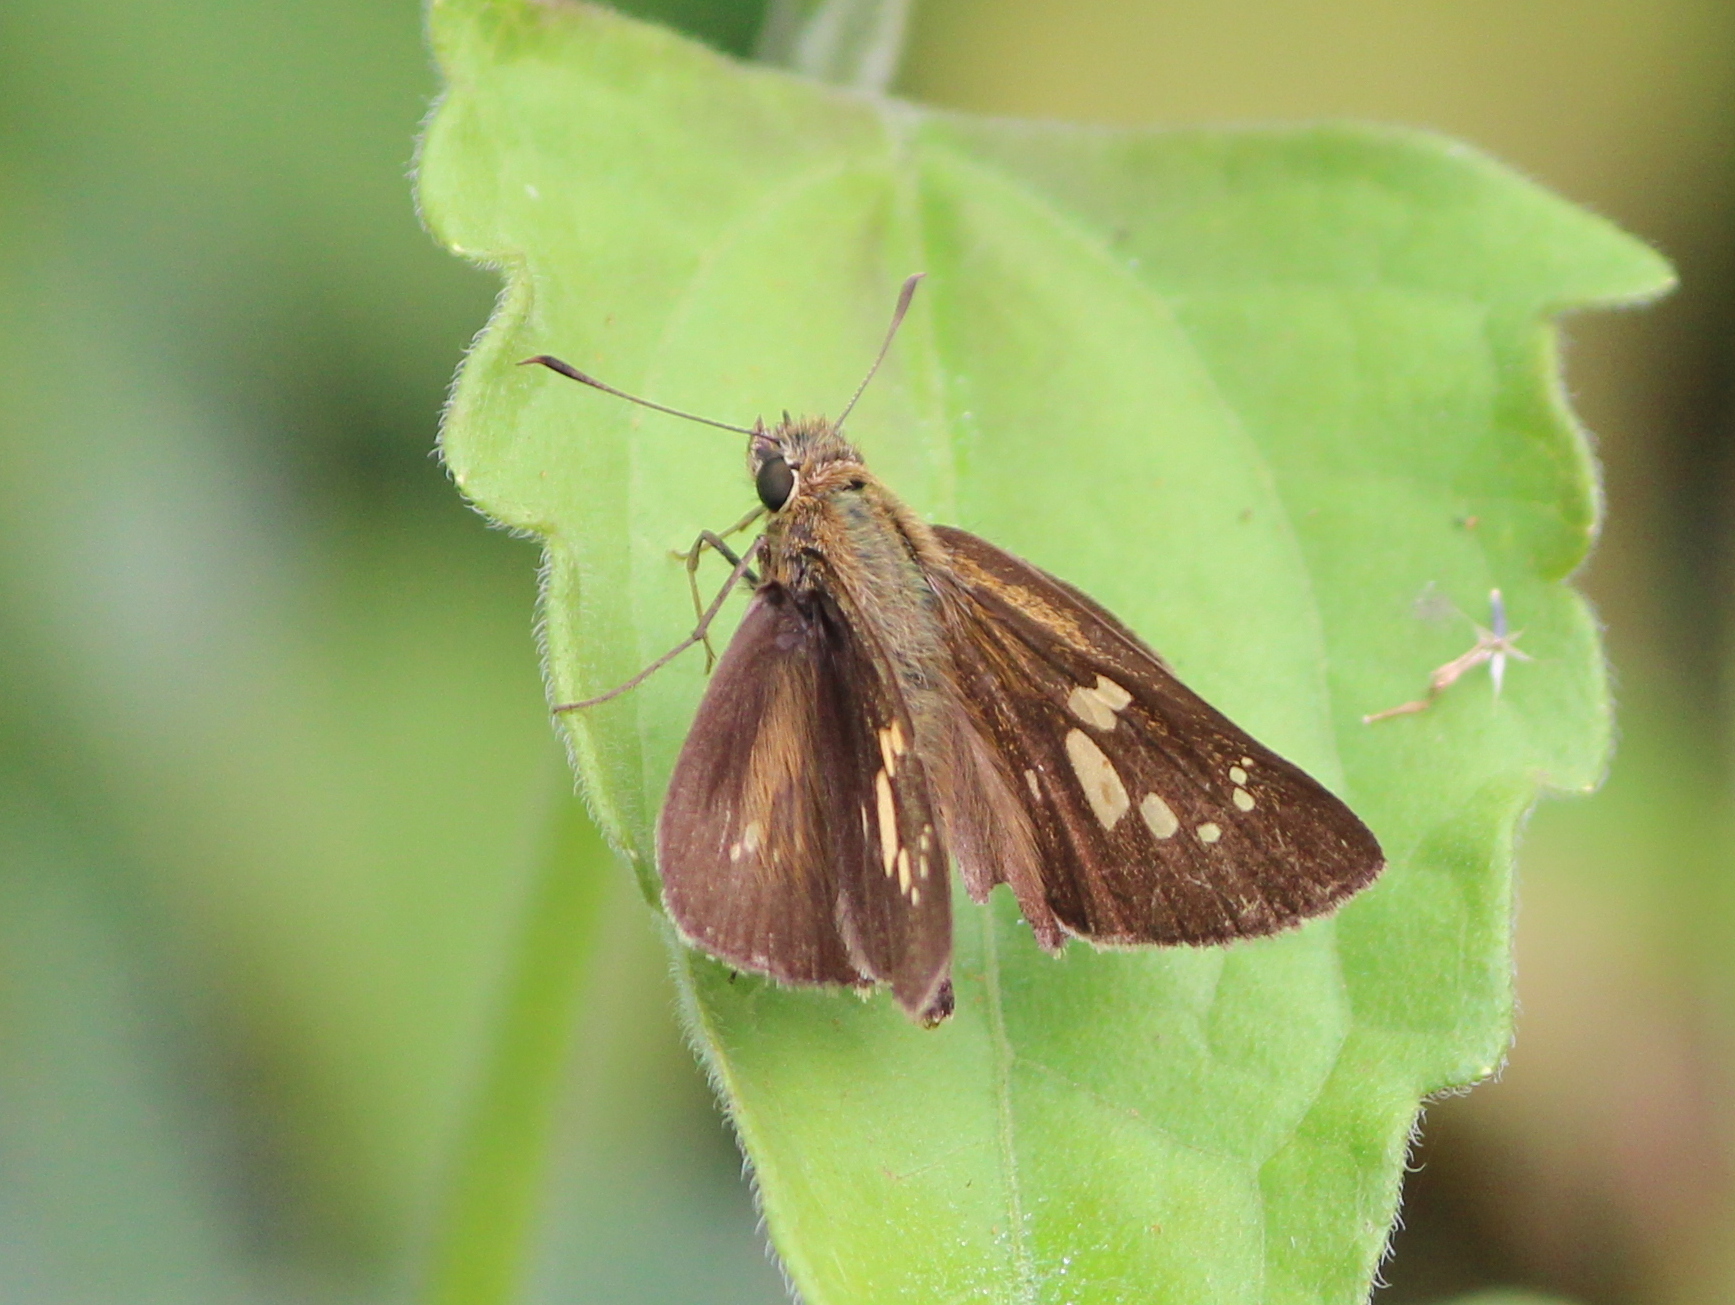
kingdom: Animalia
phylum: Arthropoda
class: Insecta
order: Lepidoptera
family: Hesperiidae
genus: Polytremis
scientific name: Polytremis lubricans
